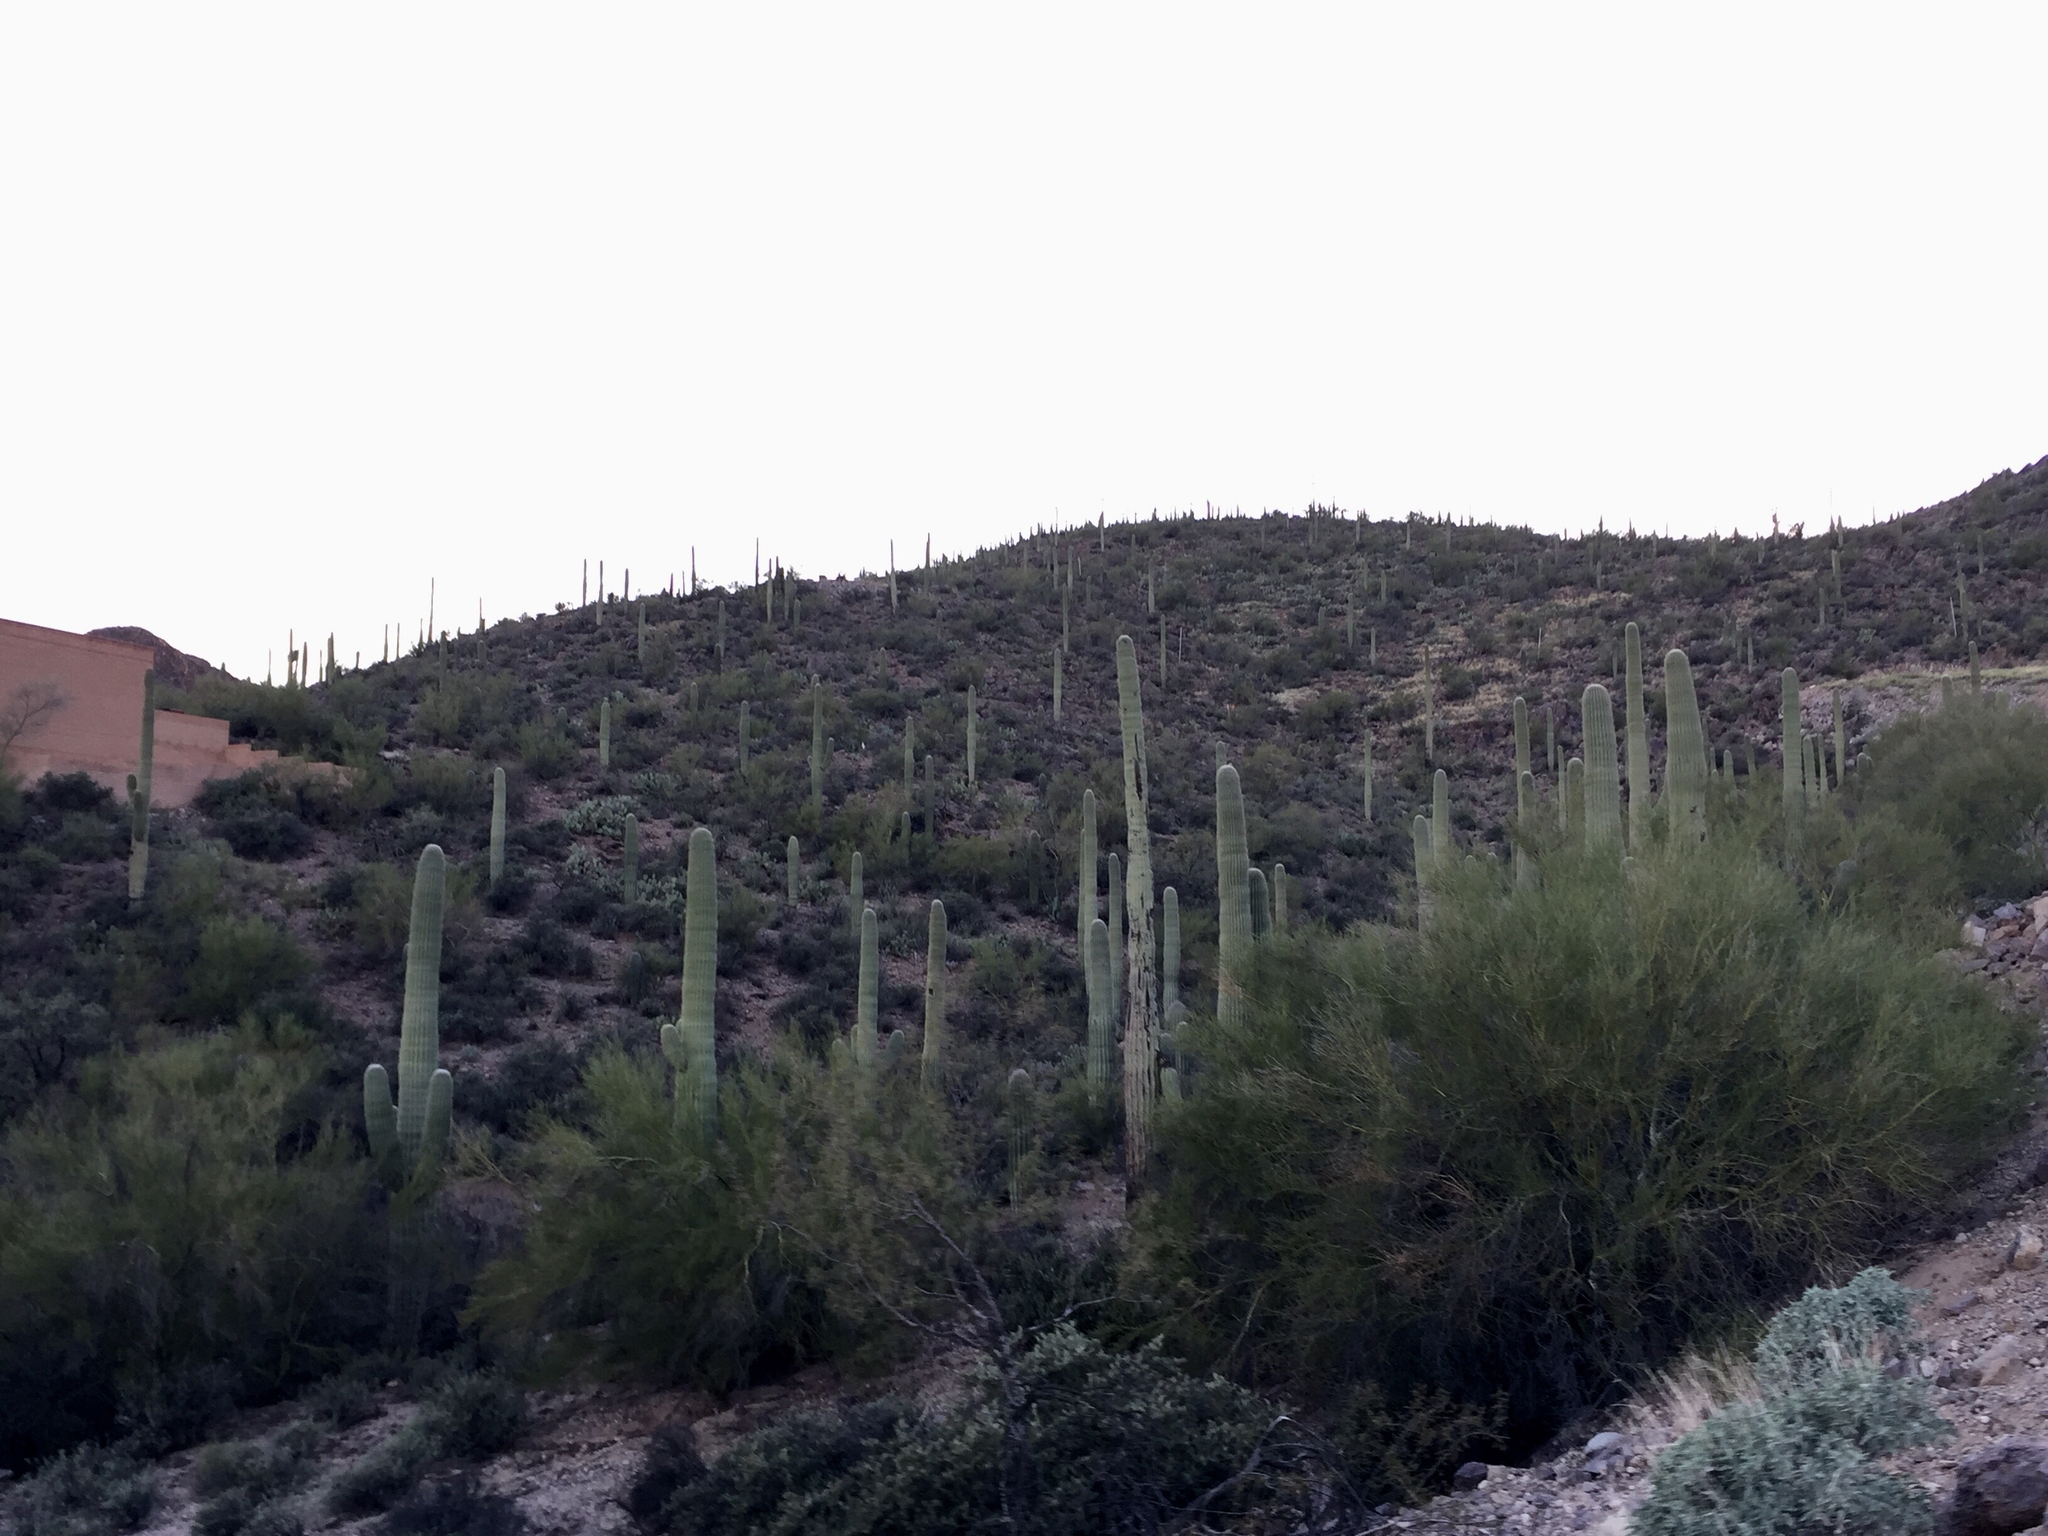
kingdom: Plantae
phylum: Tracheophyta
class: Magnoliopsida
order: Caryophyllales
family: Cactaceae
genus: Carnegiea
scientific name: Carnegiea gigantea
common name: Saguaro
